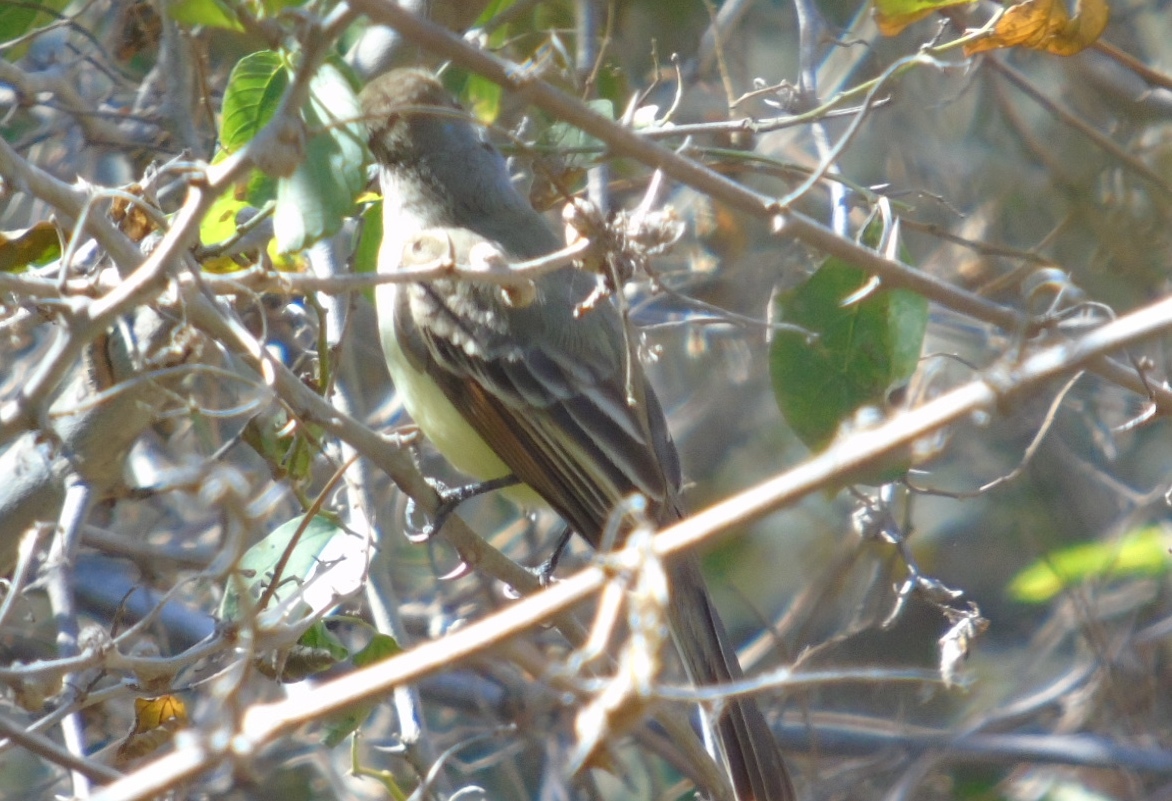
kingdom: Animalia
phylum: Chordata
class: Aves
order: Passeriformes
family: Tyrannidae
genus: Myiarchus
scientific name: Myiarchus tyrannulus
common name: Brown-crested flycatcher
